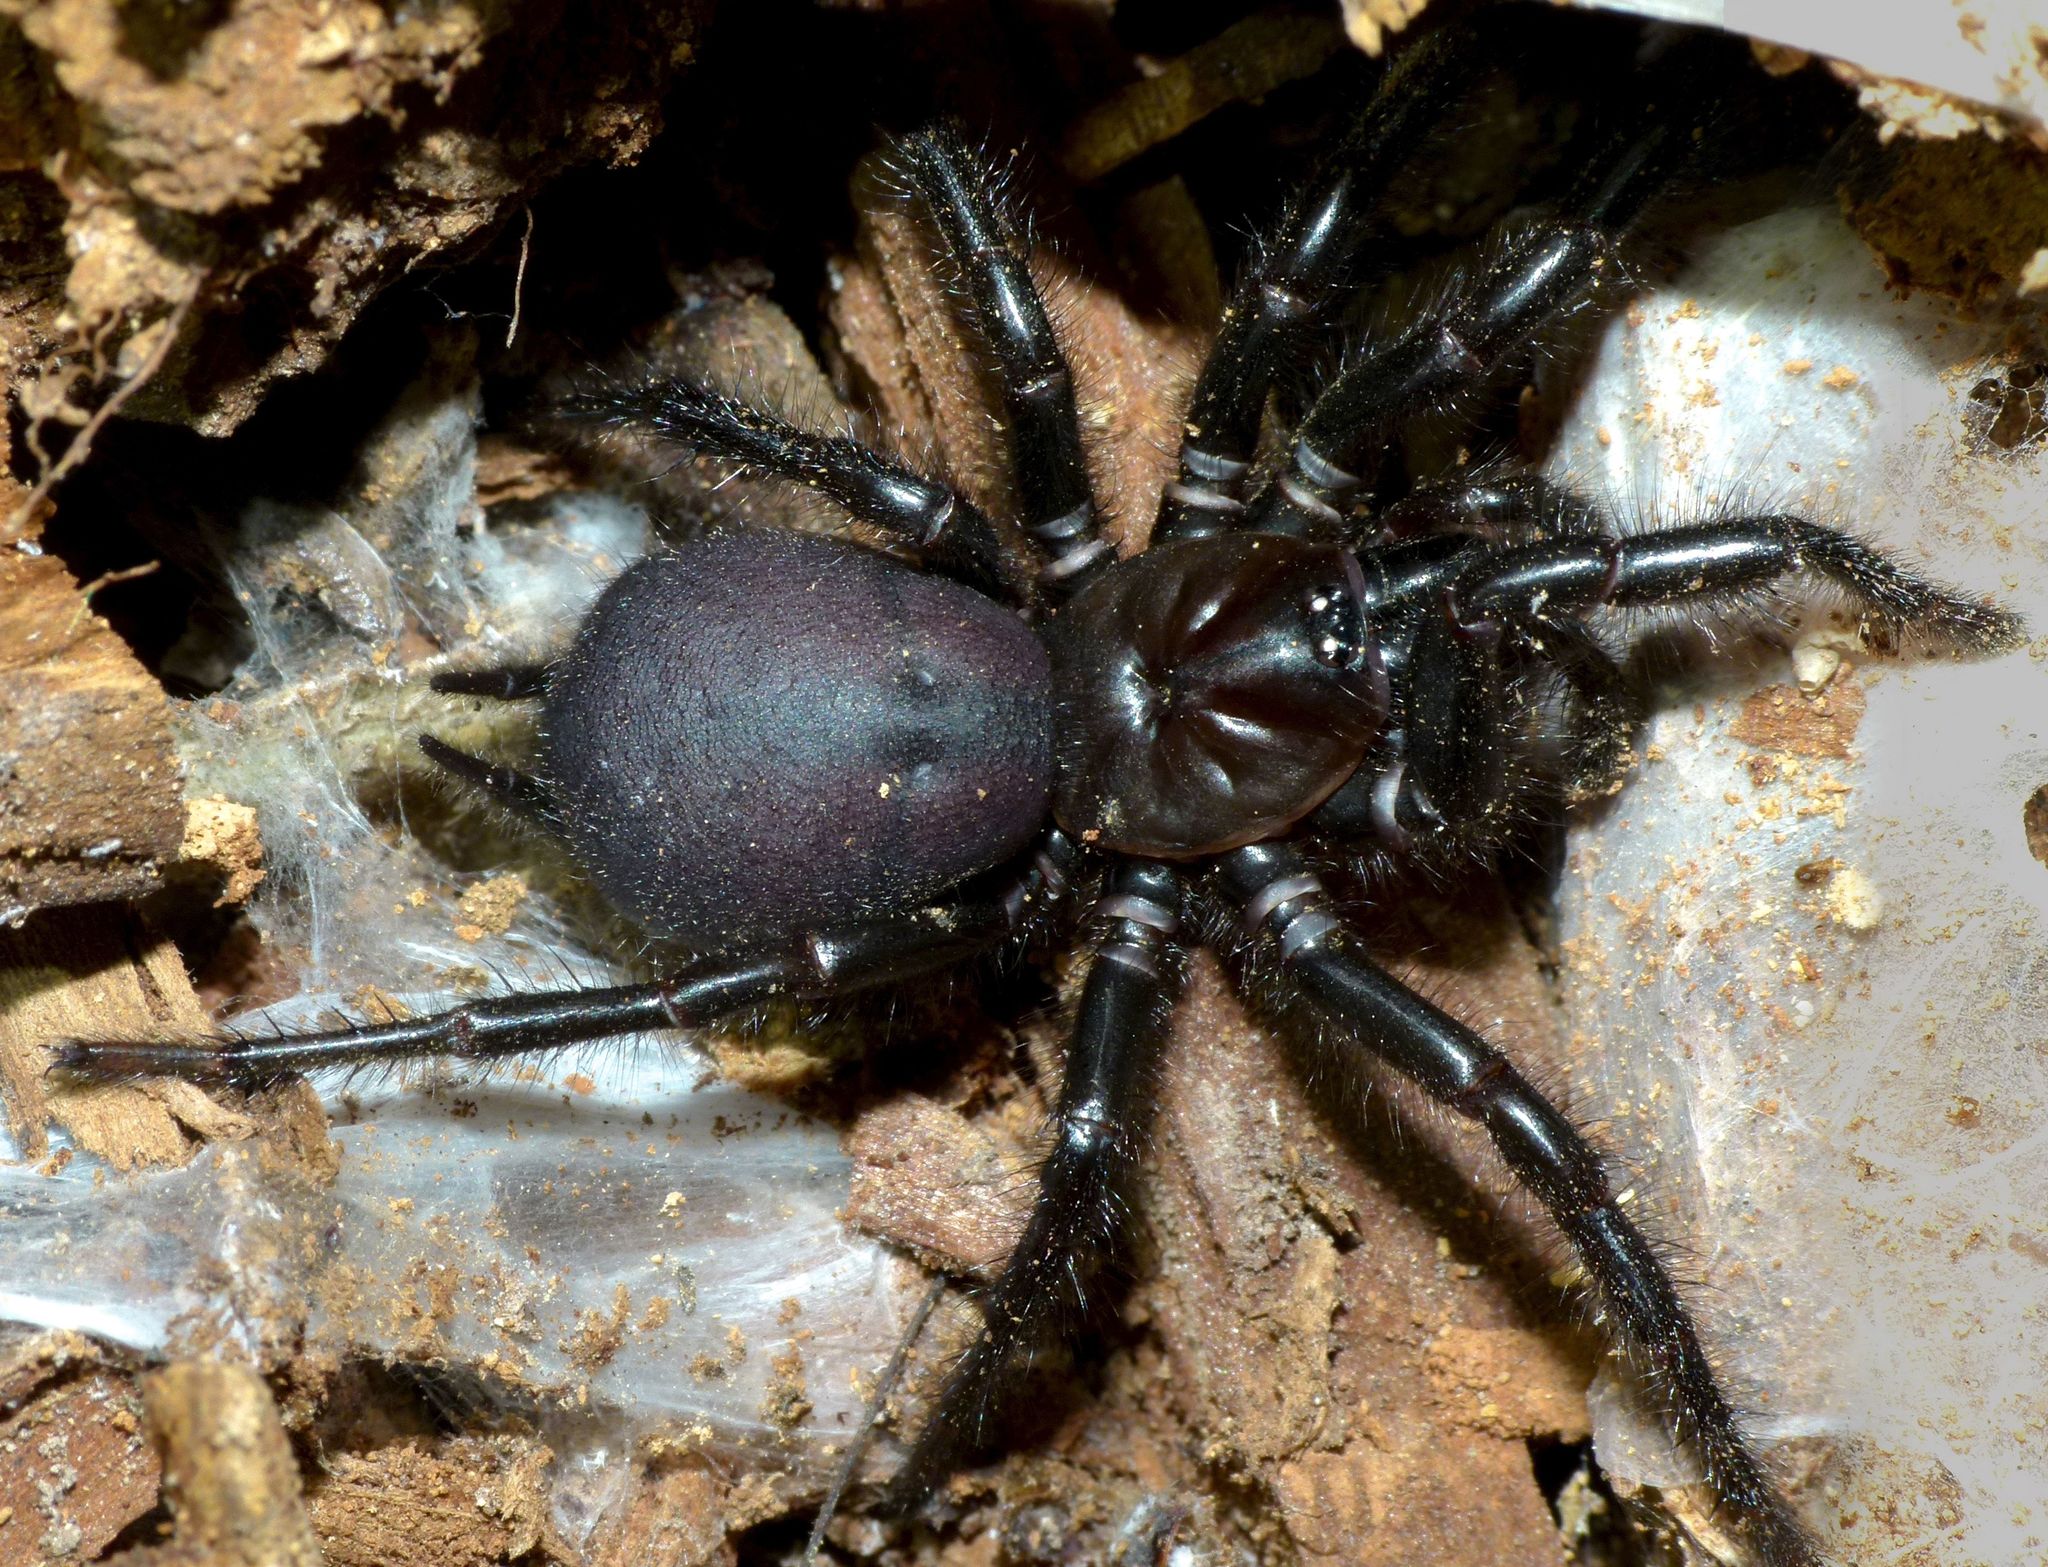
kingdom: Animalia
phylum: Arthropoda
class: Arachnida
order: Araneae
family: Porrhothelidae
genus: Porrhothele
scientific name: Porrhothele antipodiana
